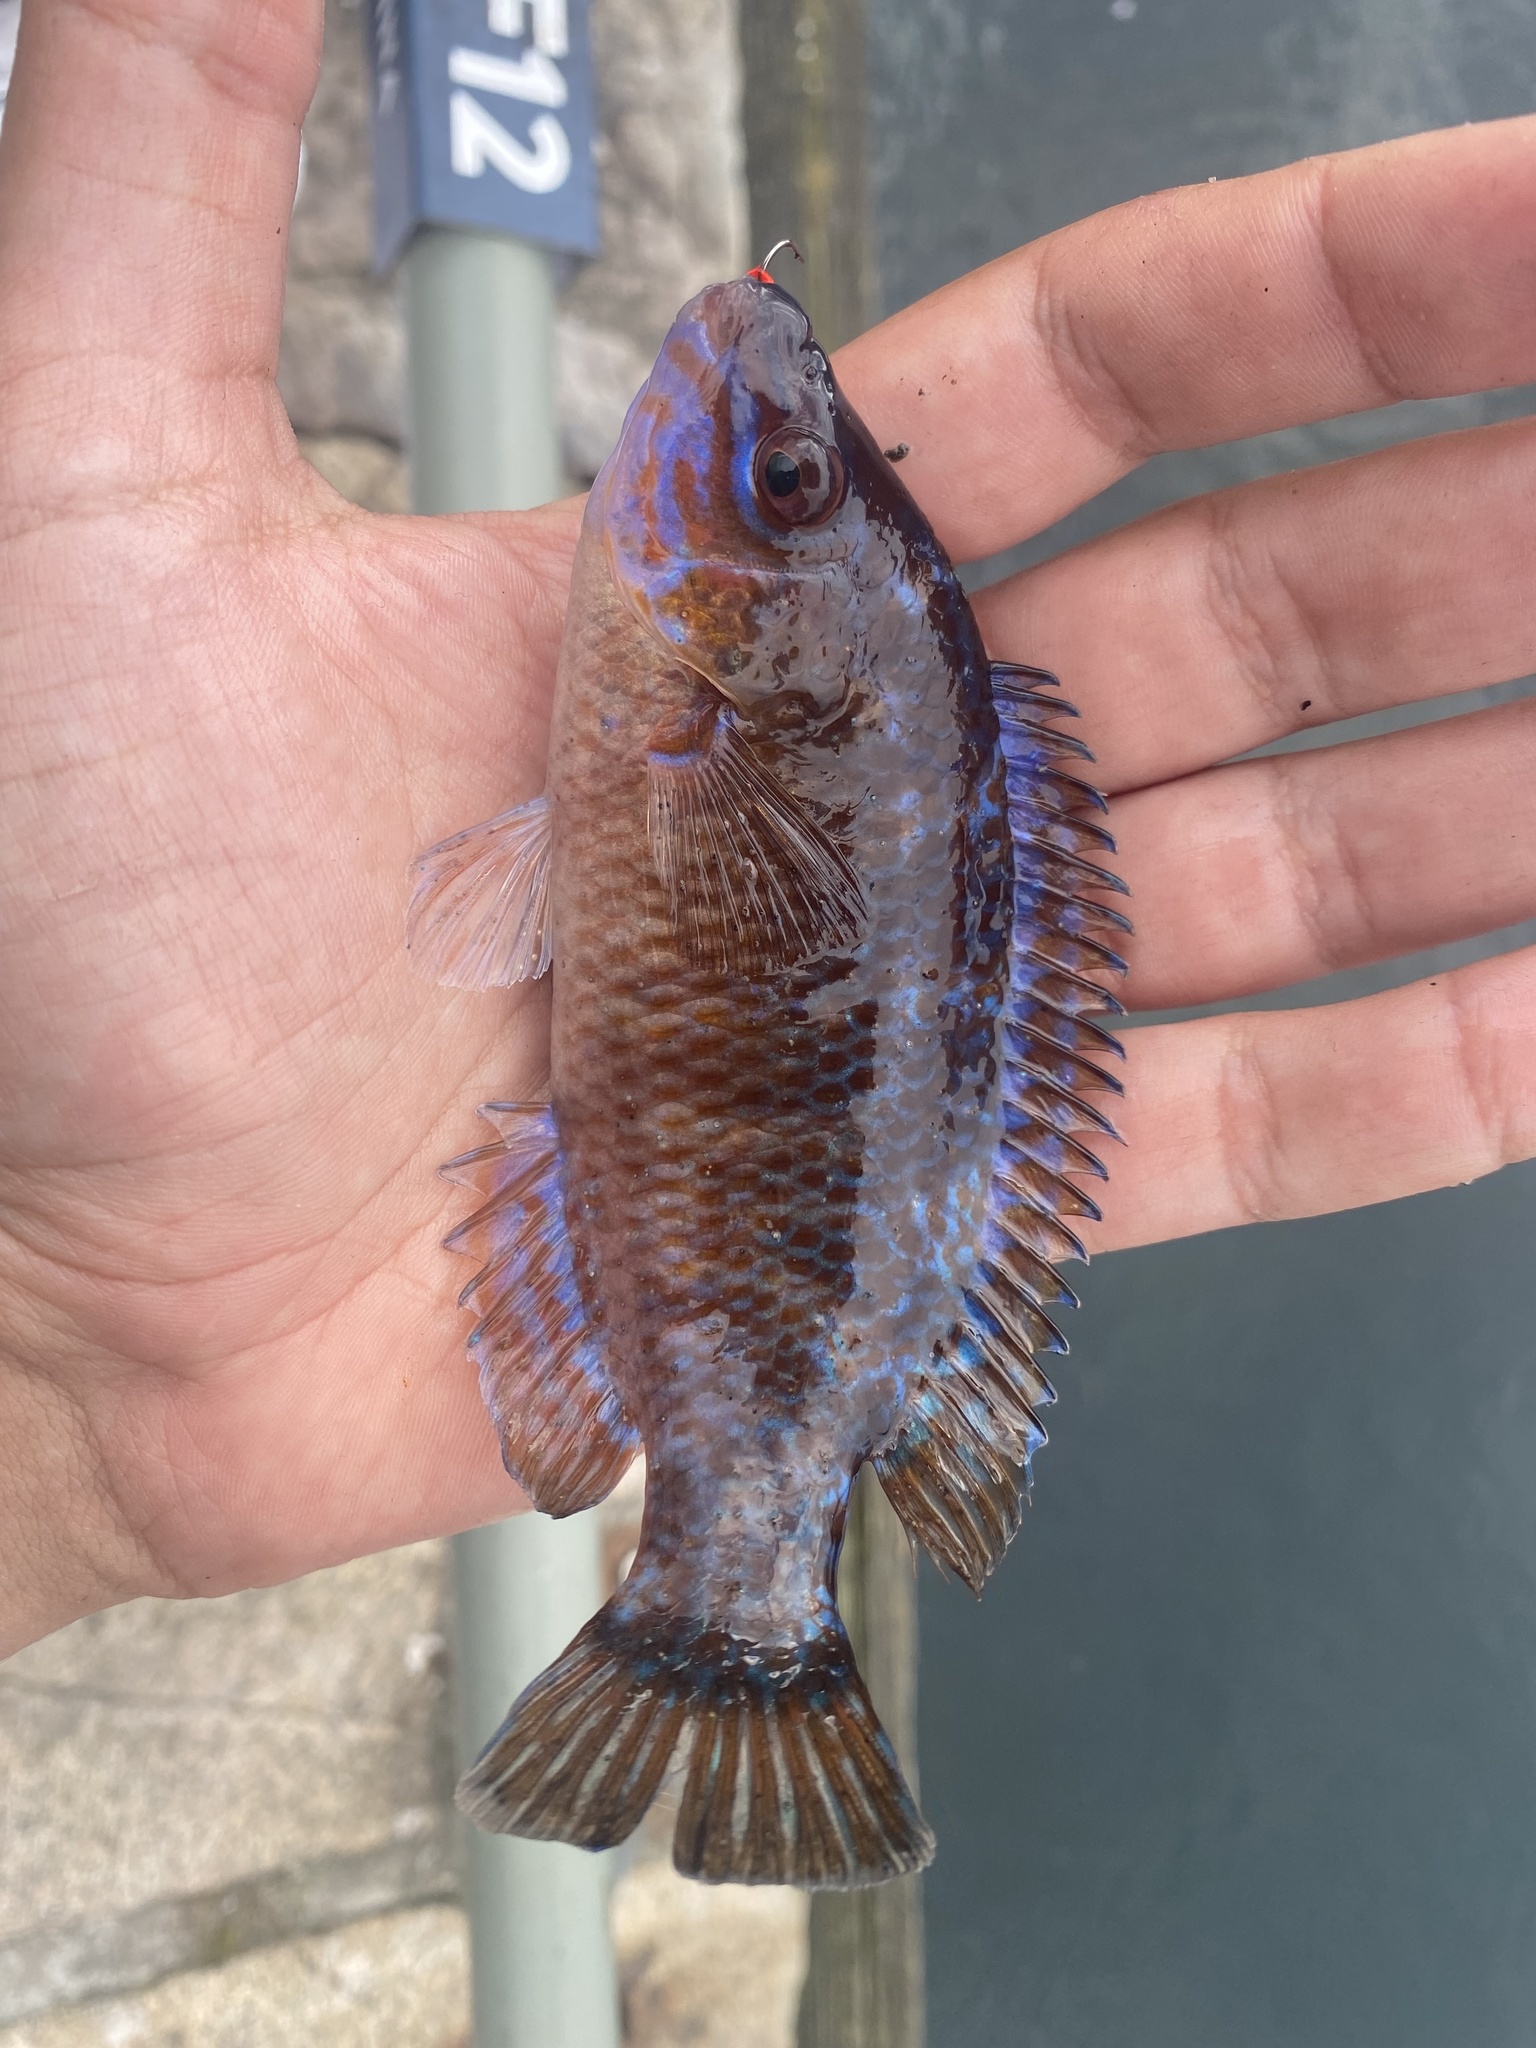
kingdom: Animalia
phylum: Chordata
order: Perciformes
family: Labridae
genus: Centrolabrus
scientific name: Centrolabrus exoletus
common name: Rock cook
